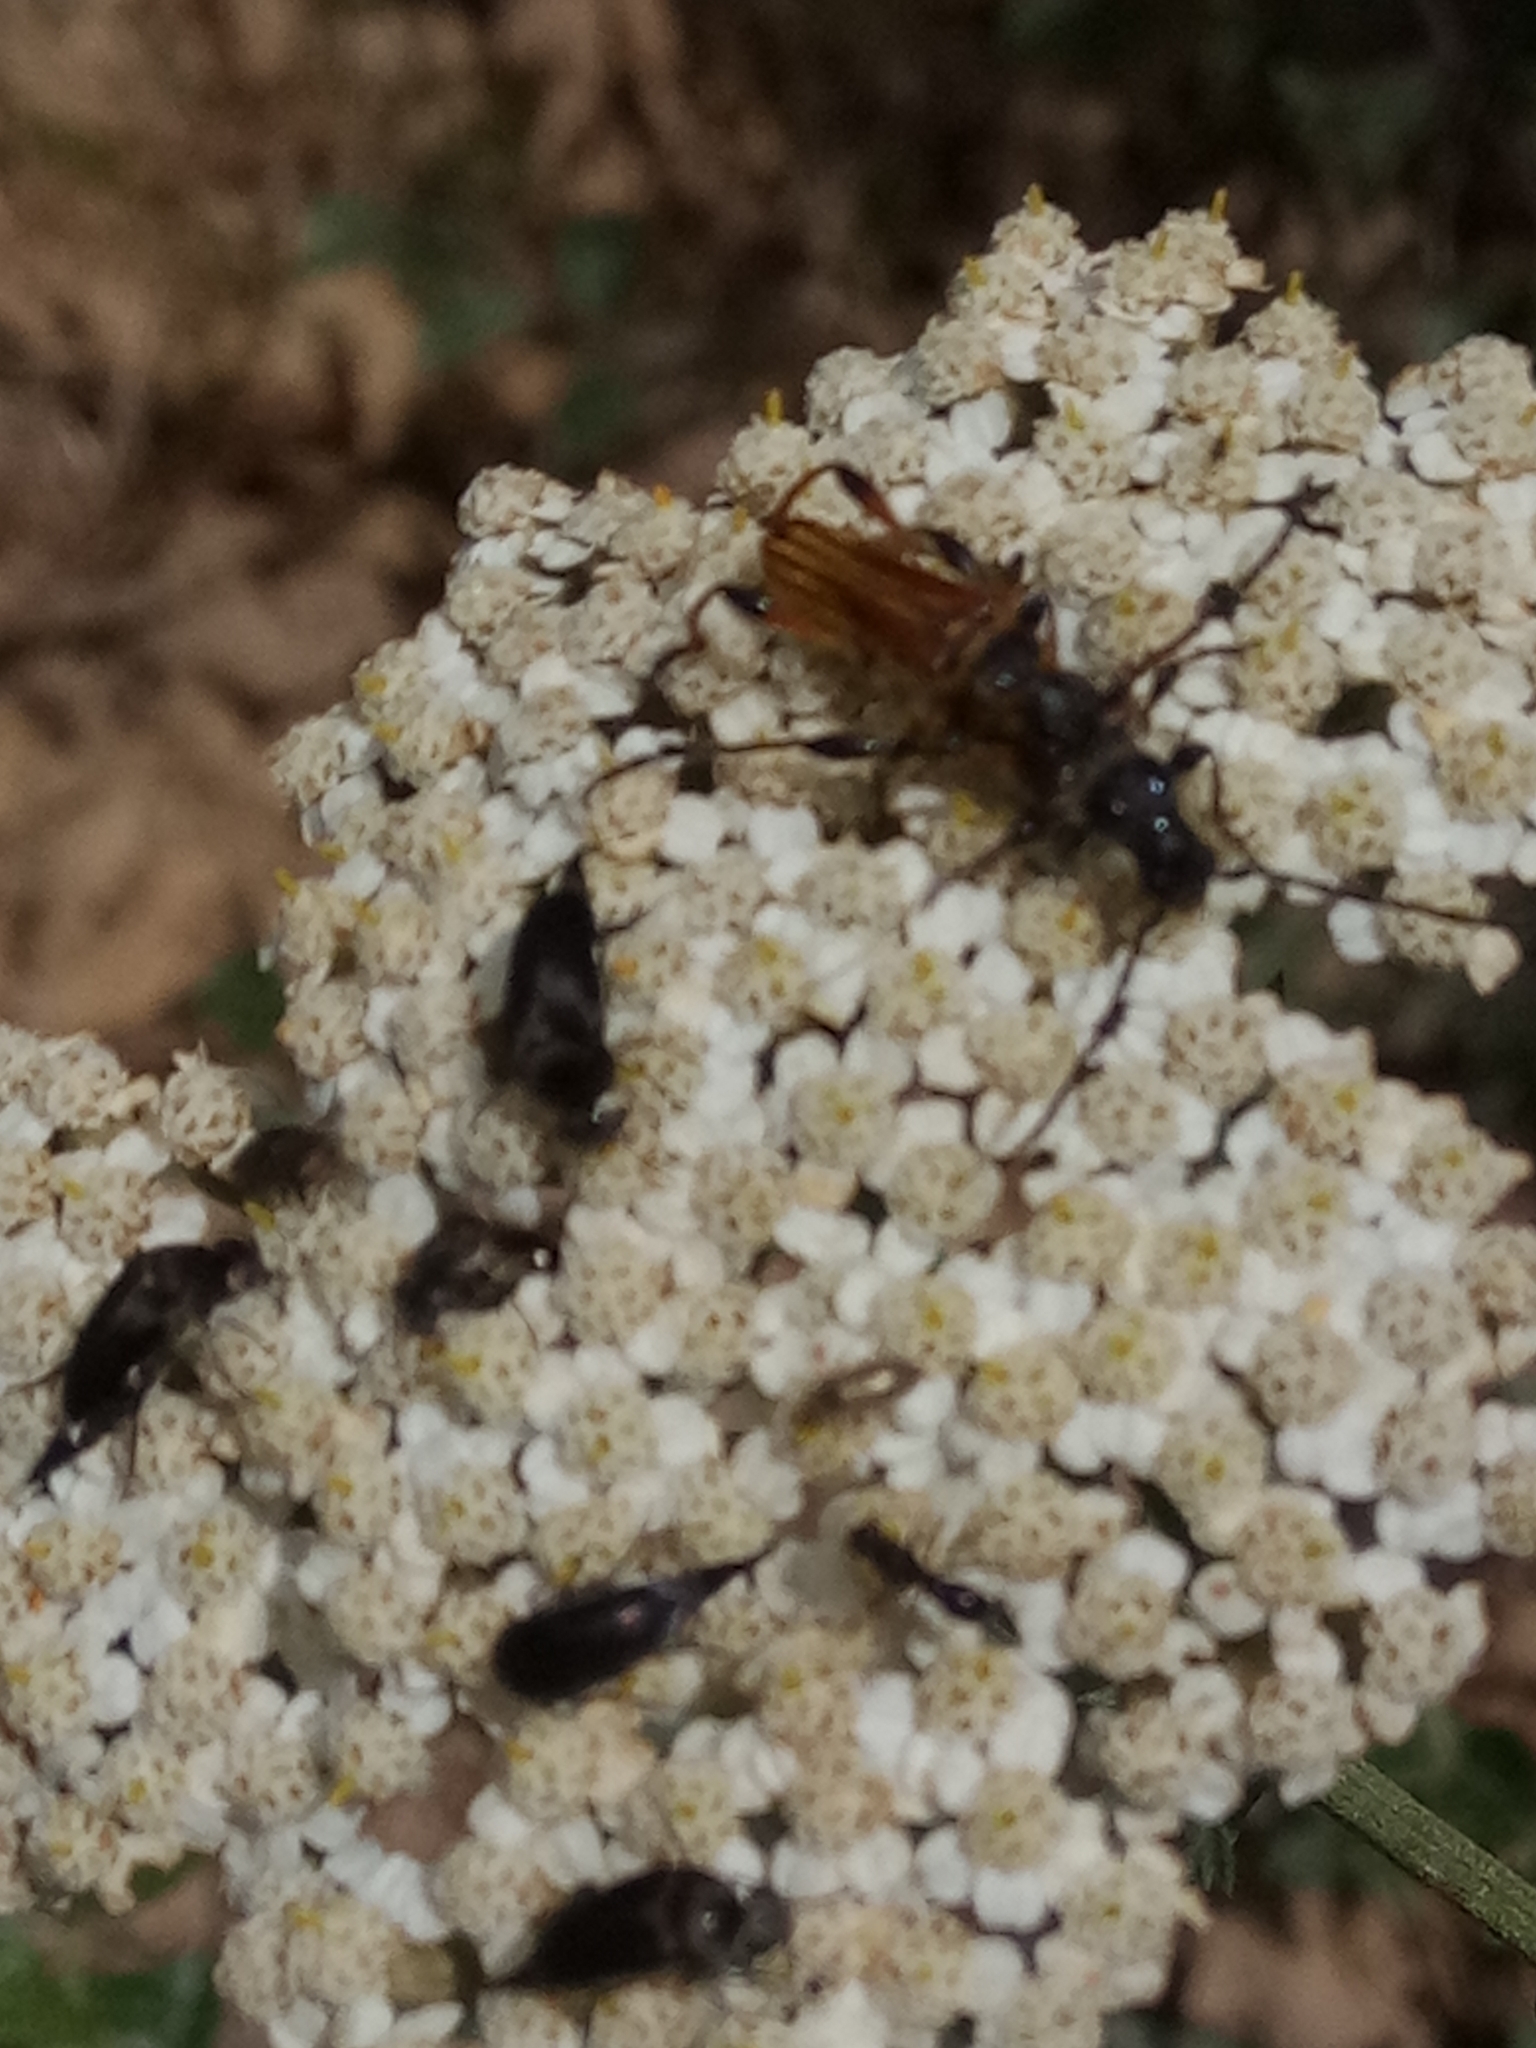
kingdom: Animalia
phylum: Arthropoda
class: Insecta
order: Coleoptera
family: Cerambycidae
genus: Stenopterus
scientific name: Stenopterus ater
